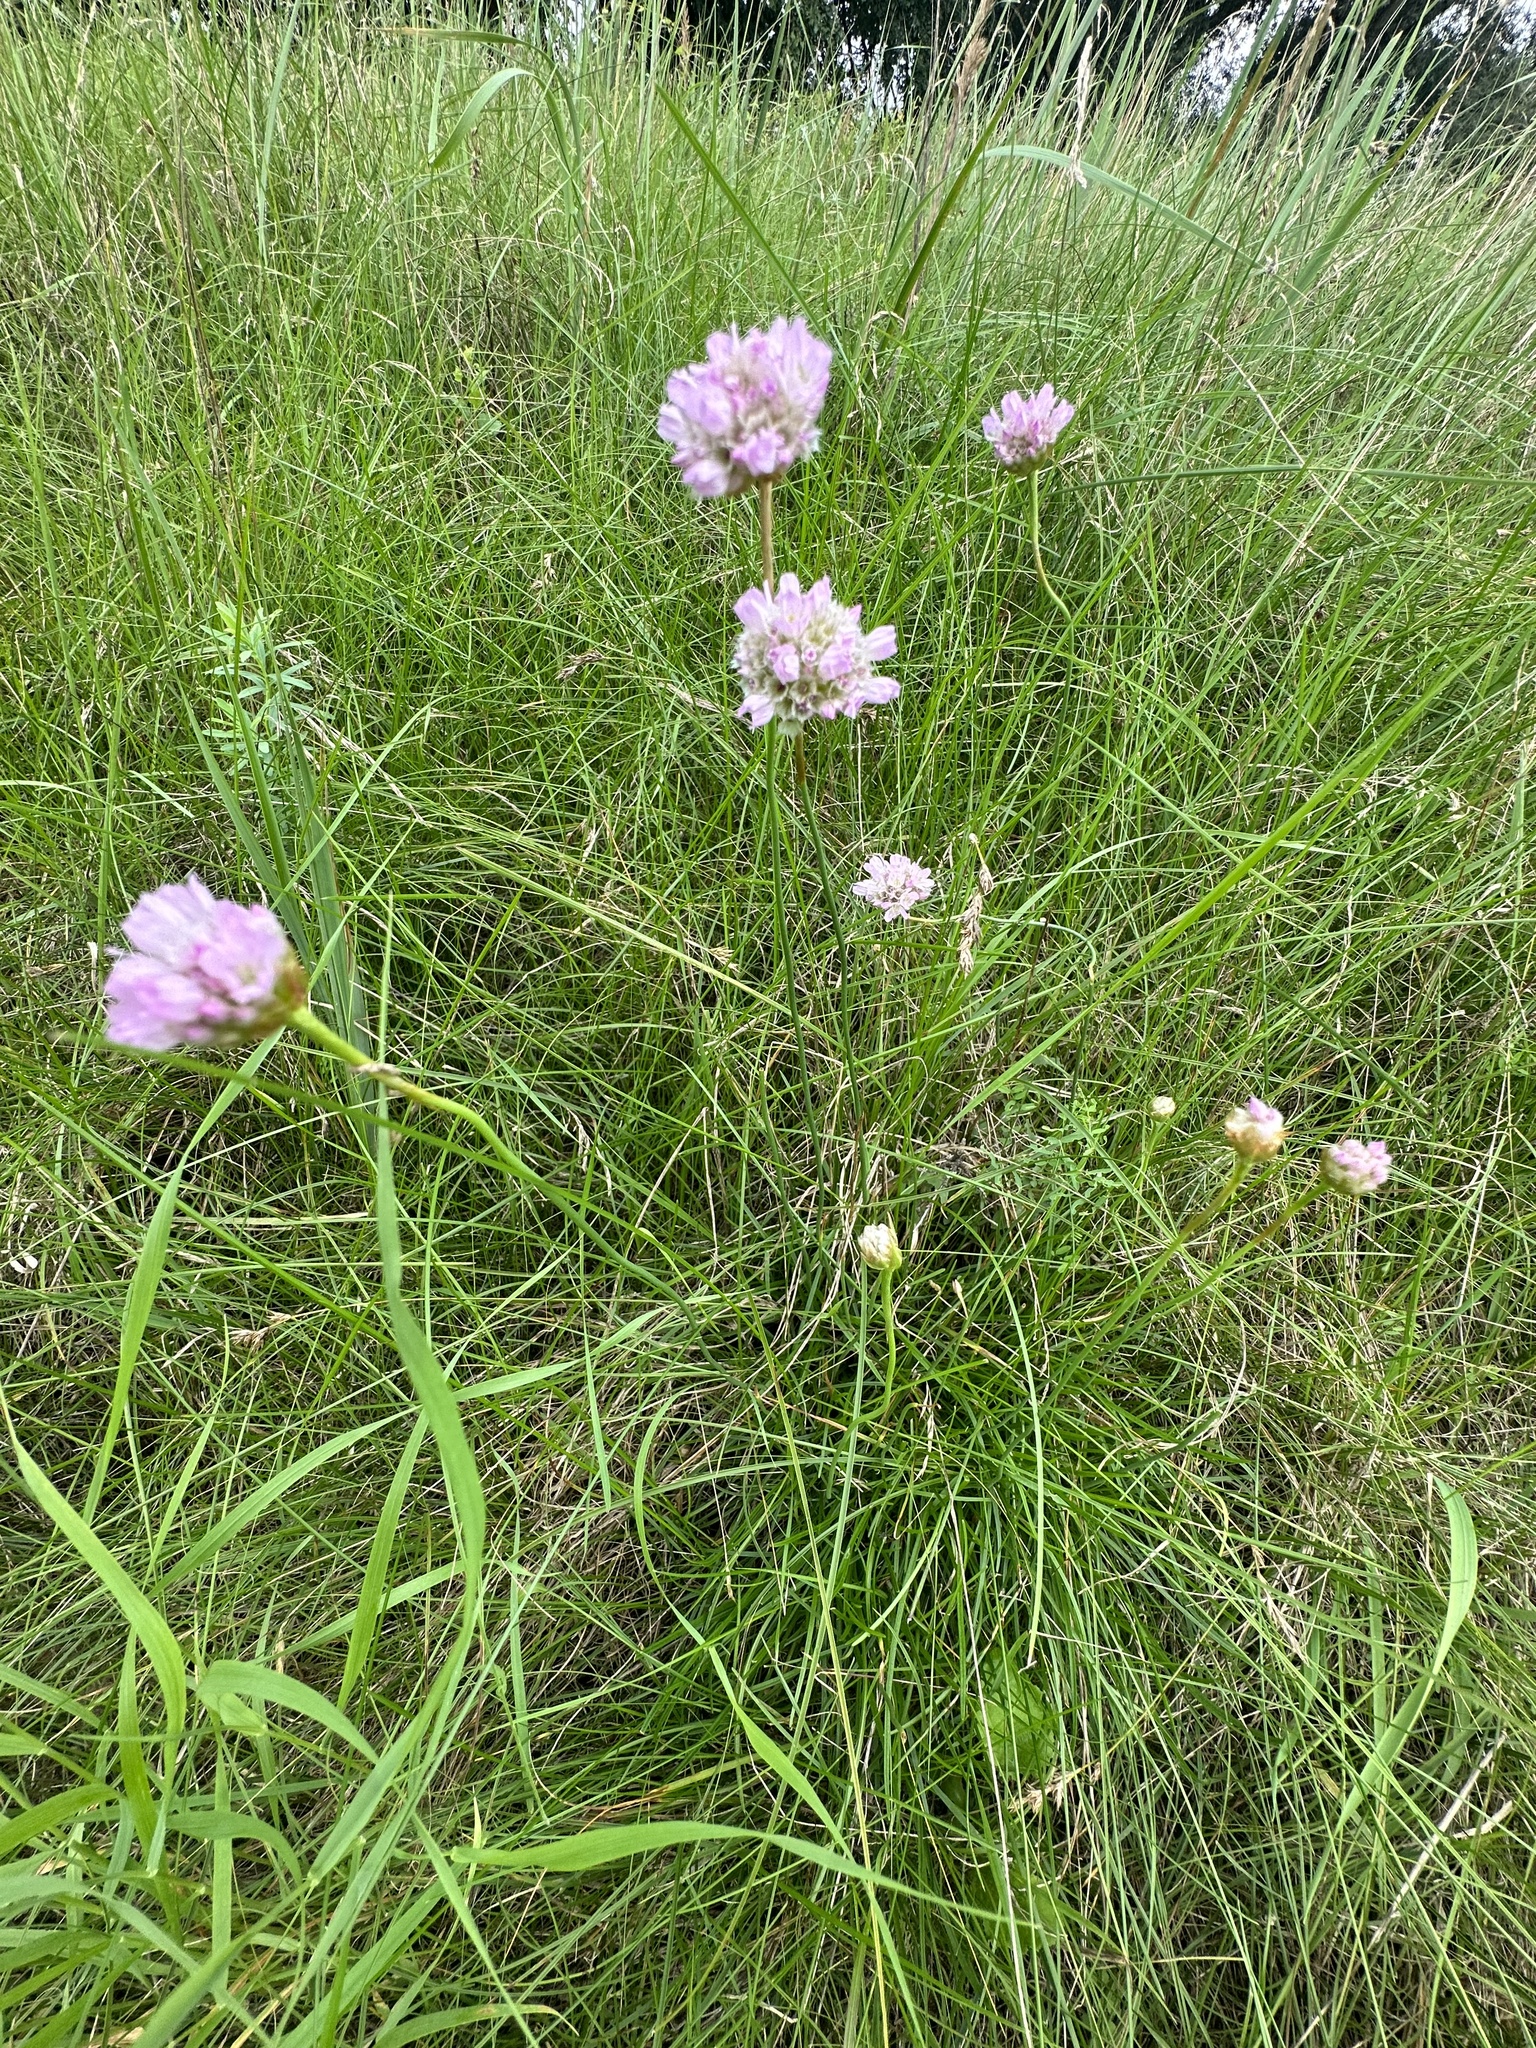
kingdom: Plantae
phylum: Tracheophyta
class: Magnoliopsida
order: Caryophyllales
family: Plumbaginaceae
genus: Armeria
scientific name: Armeria maritima
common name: Thrift
